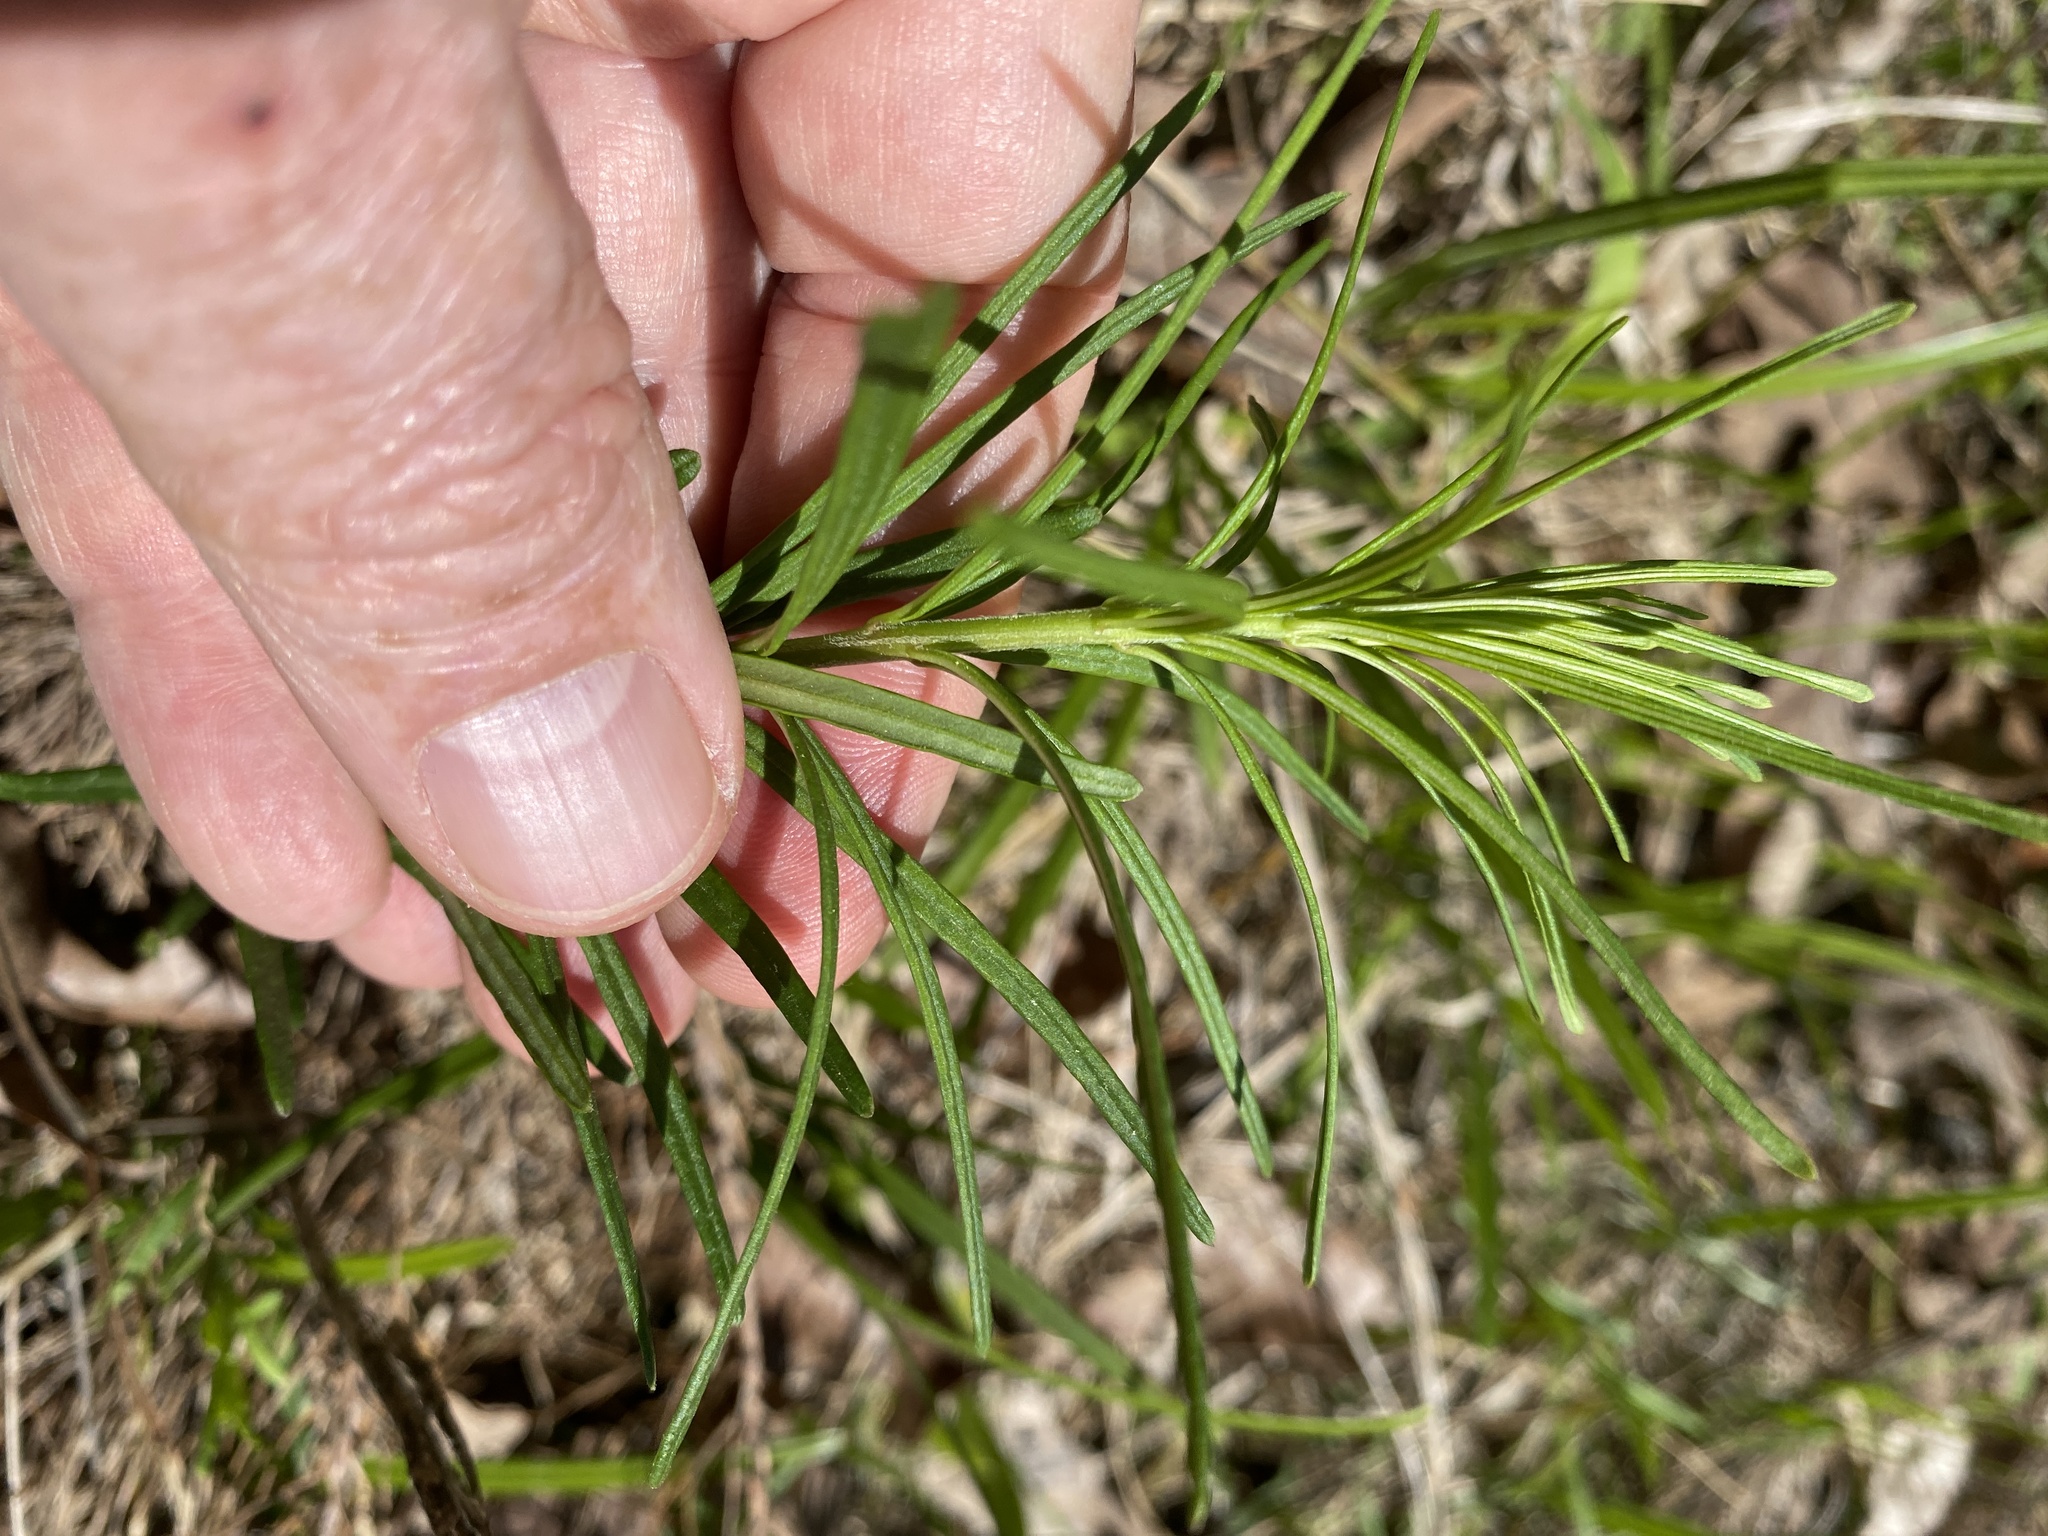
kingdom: Plantae
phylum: Tracheophyta
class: Magnoliopsida
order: Gentianales
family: Apocynaceae
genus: Asclepias
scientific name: Asclepias verticillata
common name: Eastern whorled milkweed
